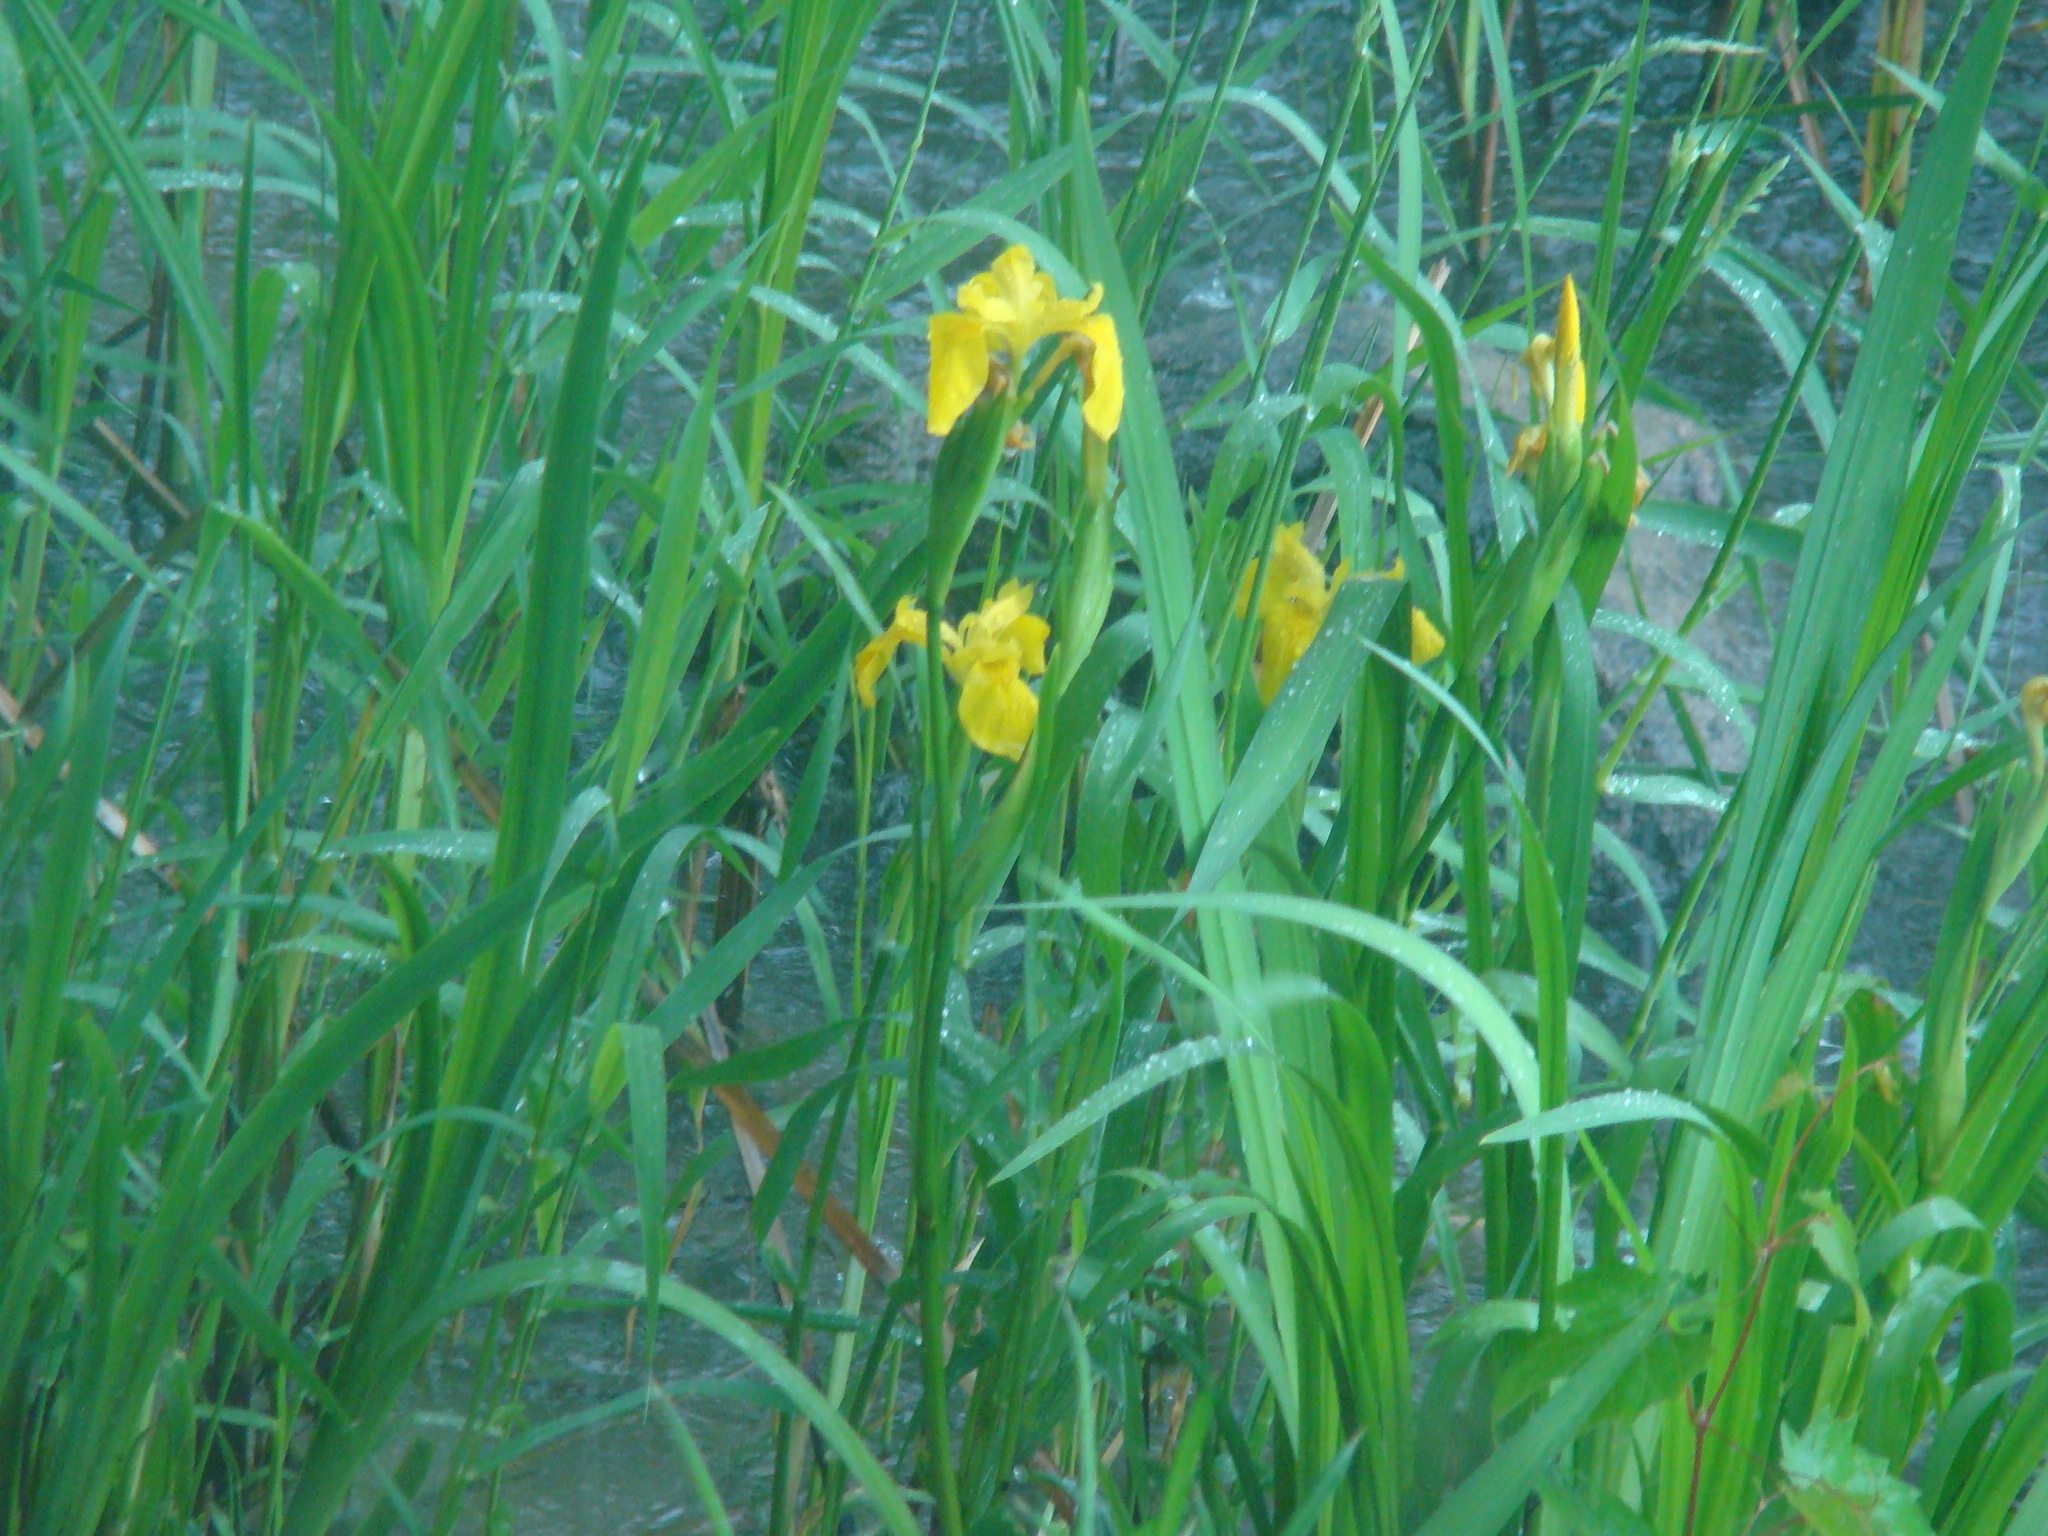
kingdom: Plantae
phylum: Tracheophyta
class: Liliopsida
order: Asparagales
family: Iridaceae
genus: Iris
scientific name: Iris pseudacorus
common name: Yellow flag
